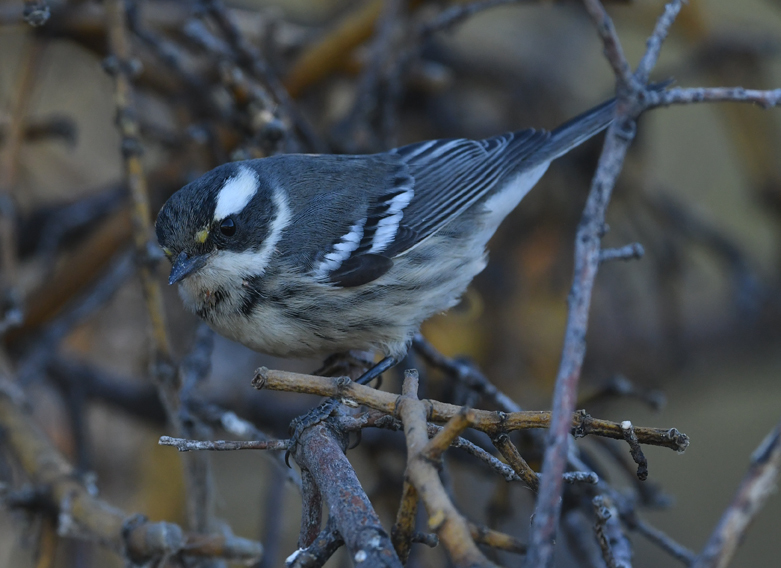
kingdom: Animalia
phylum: Chordata
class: Aves
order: Passeriformes
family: Parulidae
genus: Setophaga
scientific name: Setophaga nigrescens
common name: Black-throated gray warbler
